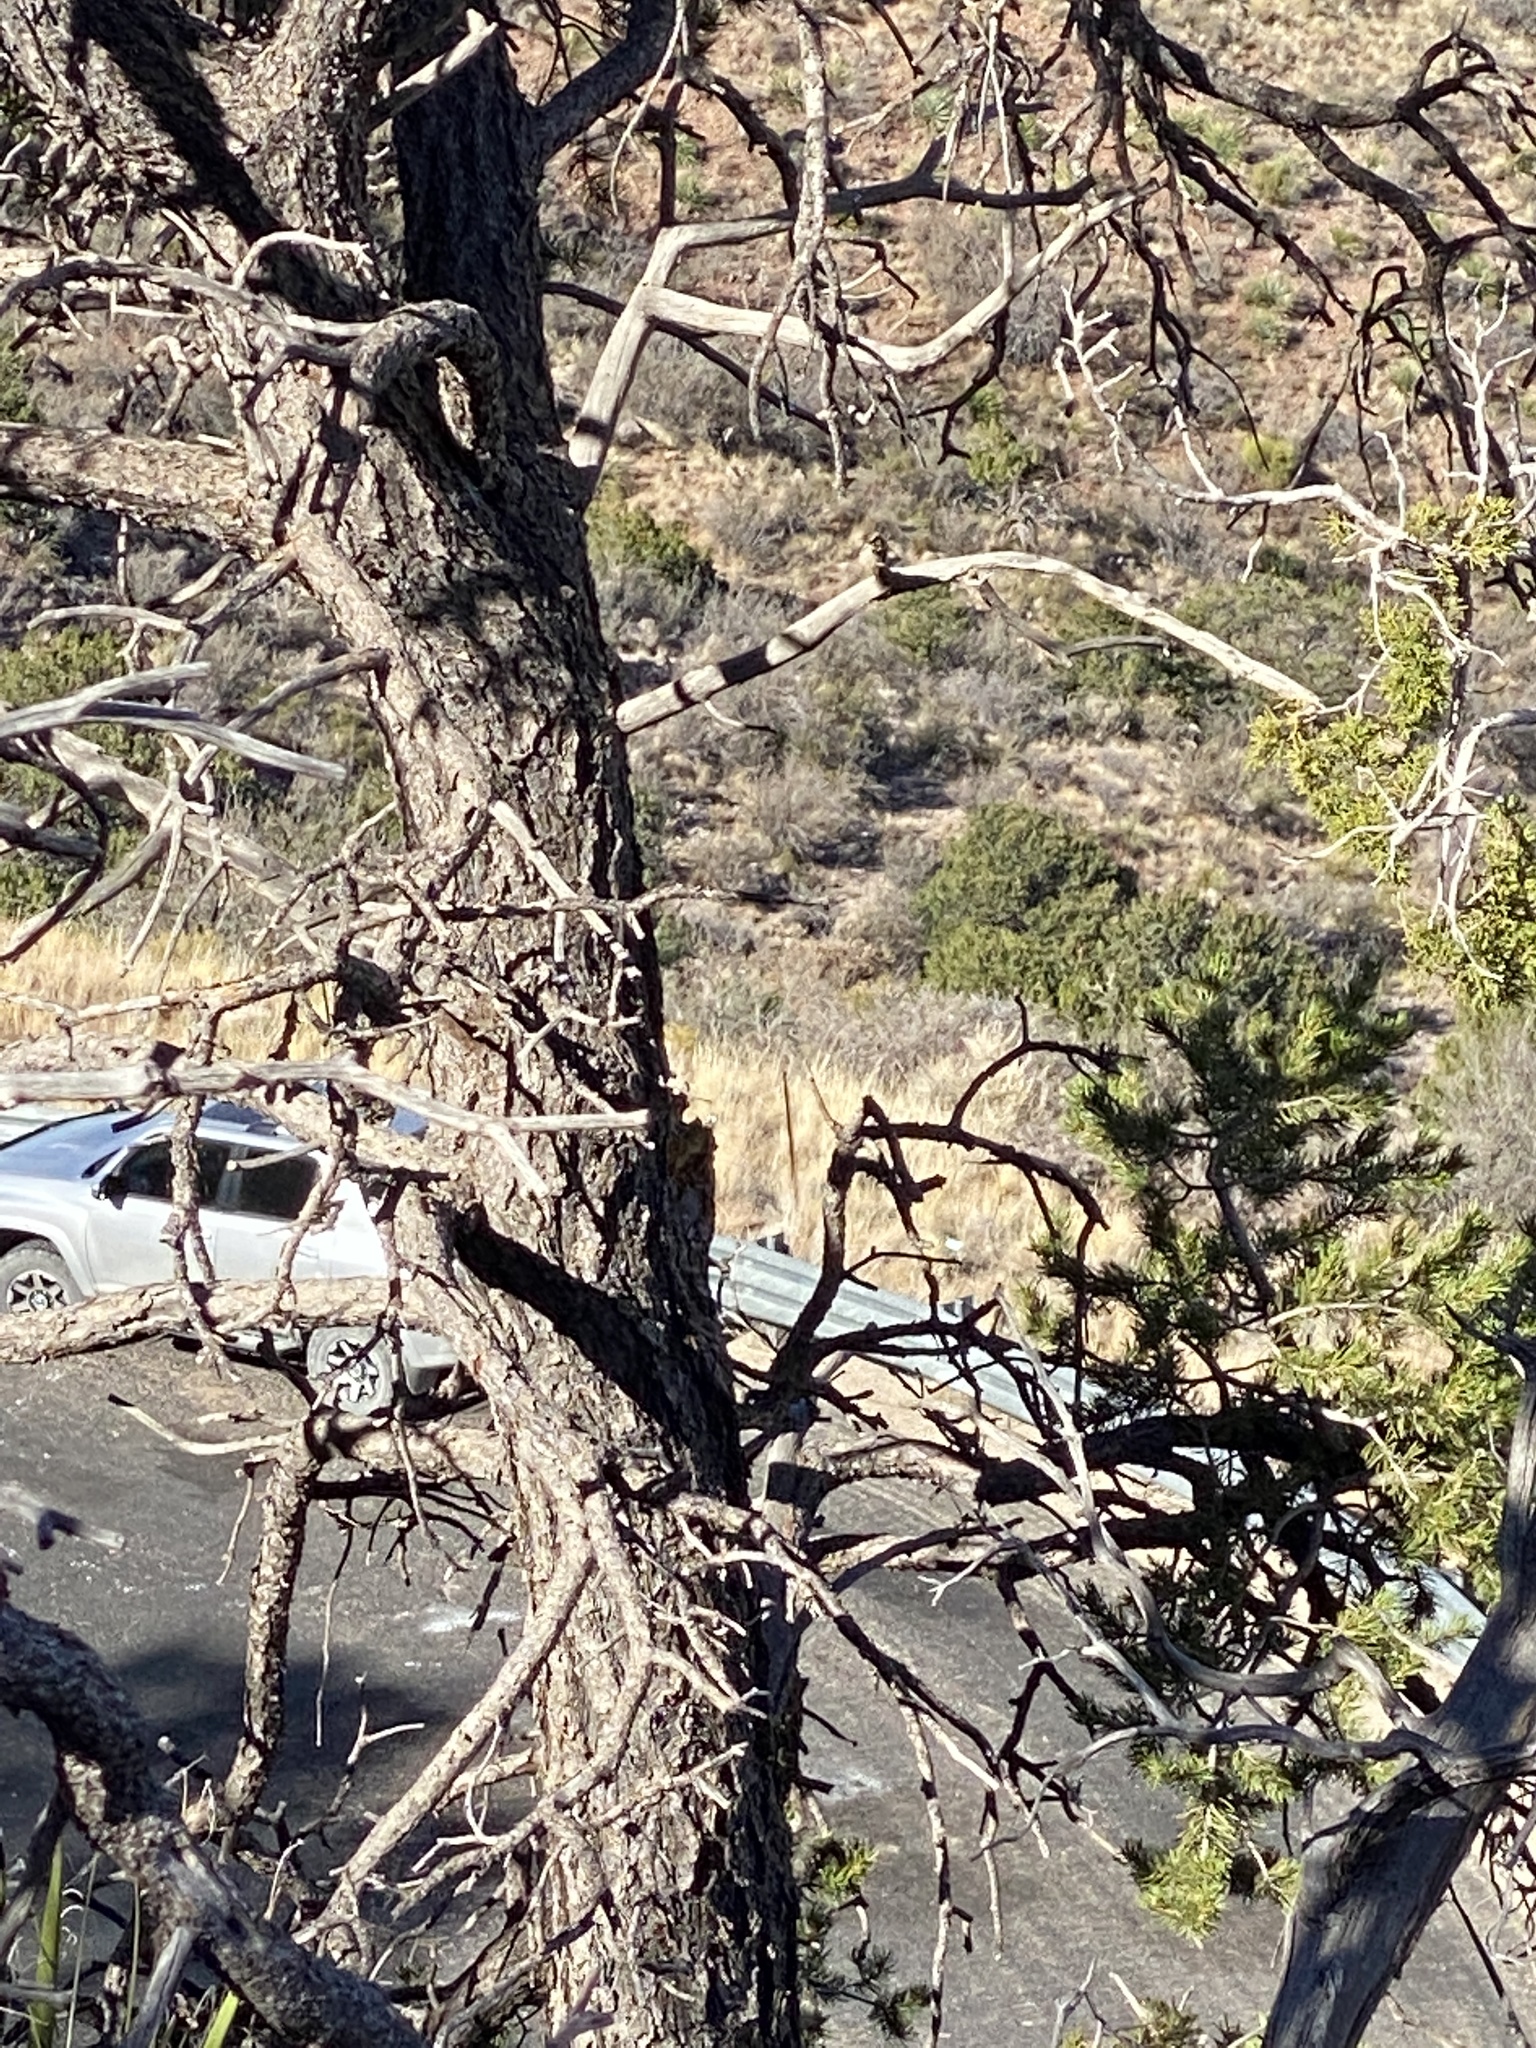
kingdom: Plantae
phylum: Tracheophyta
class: Pinopsida
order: Pinales
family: Pinaceae
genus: Pinus
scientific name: Pinus edulis
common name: Colorado pinyon
